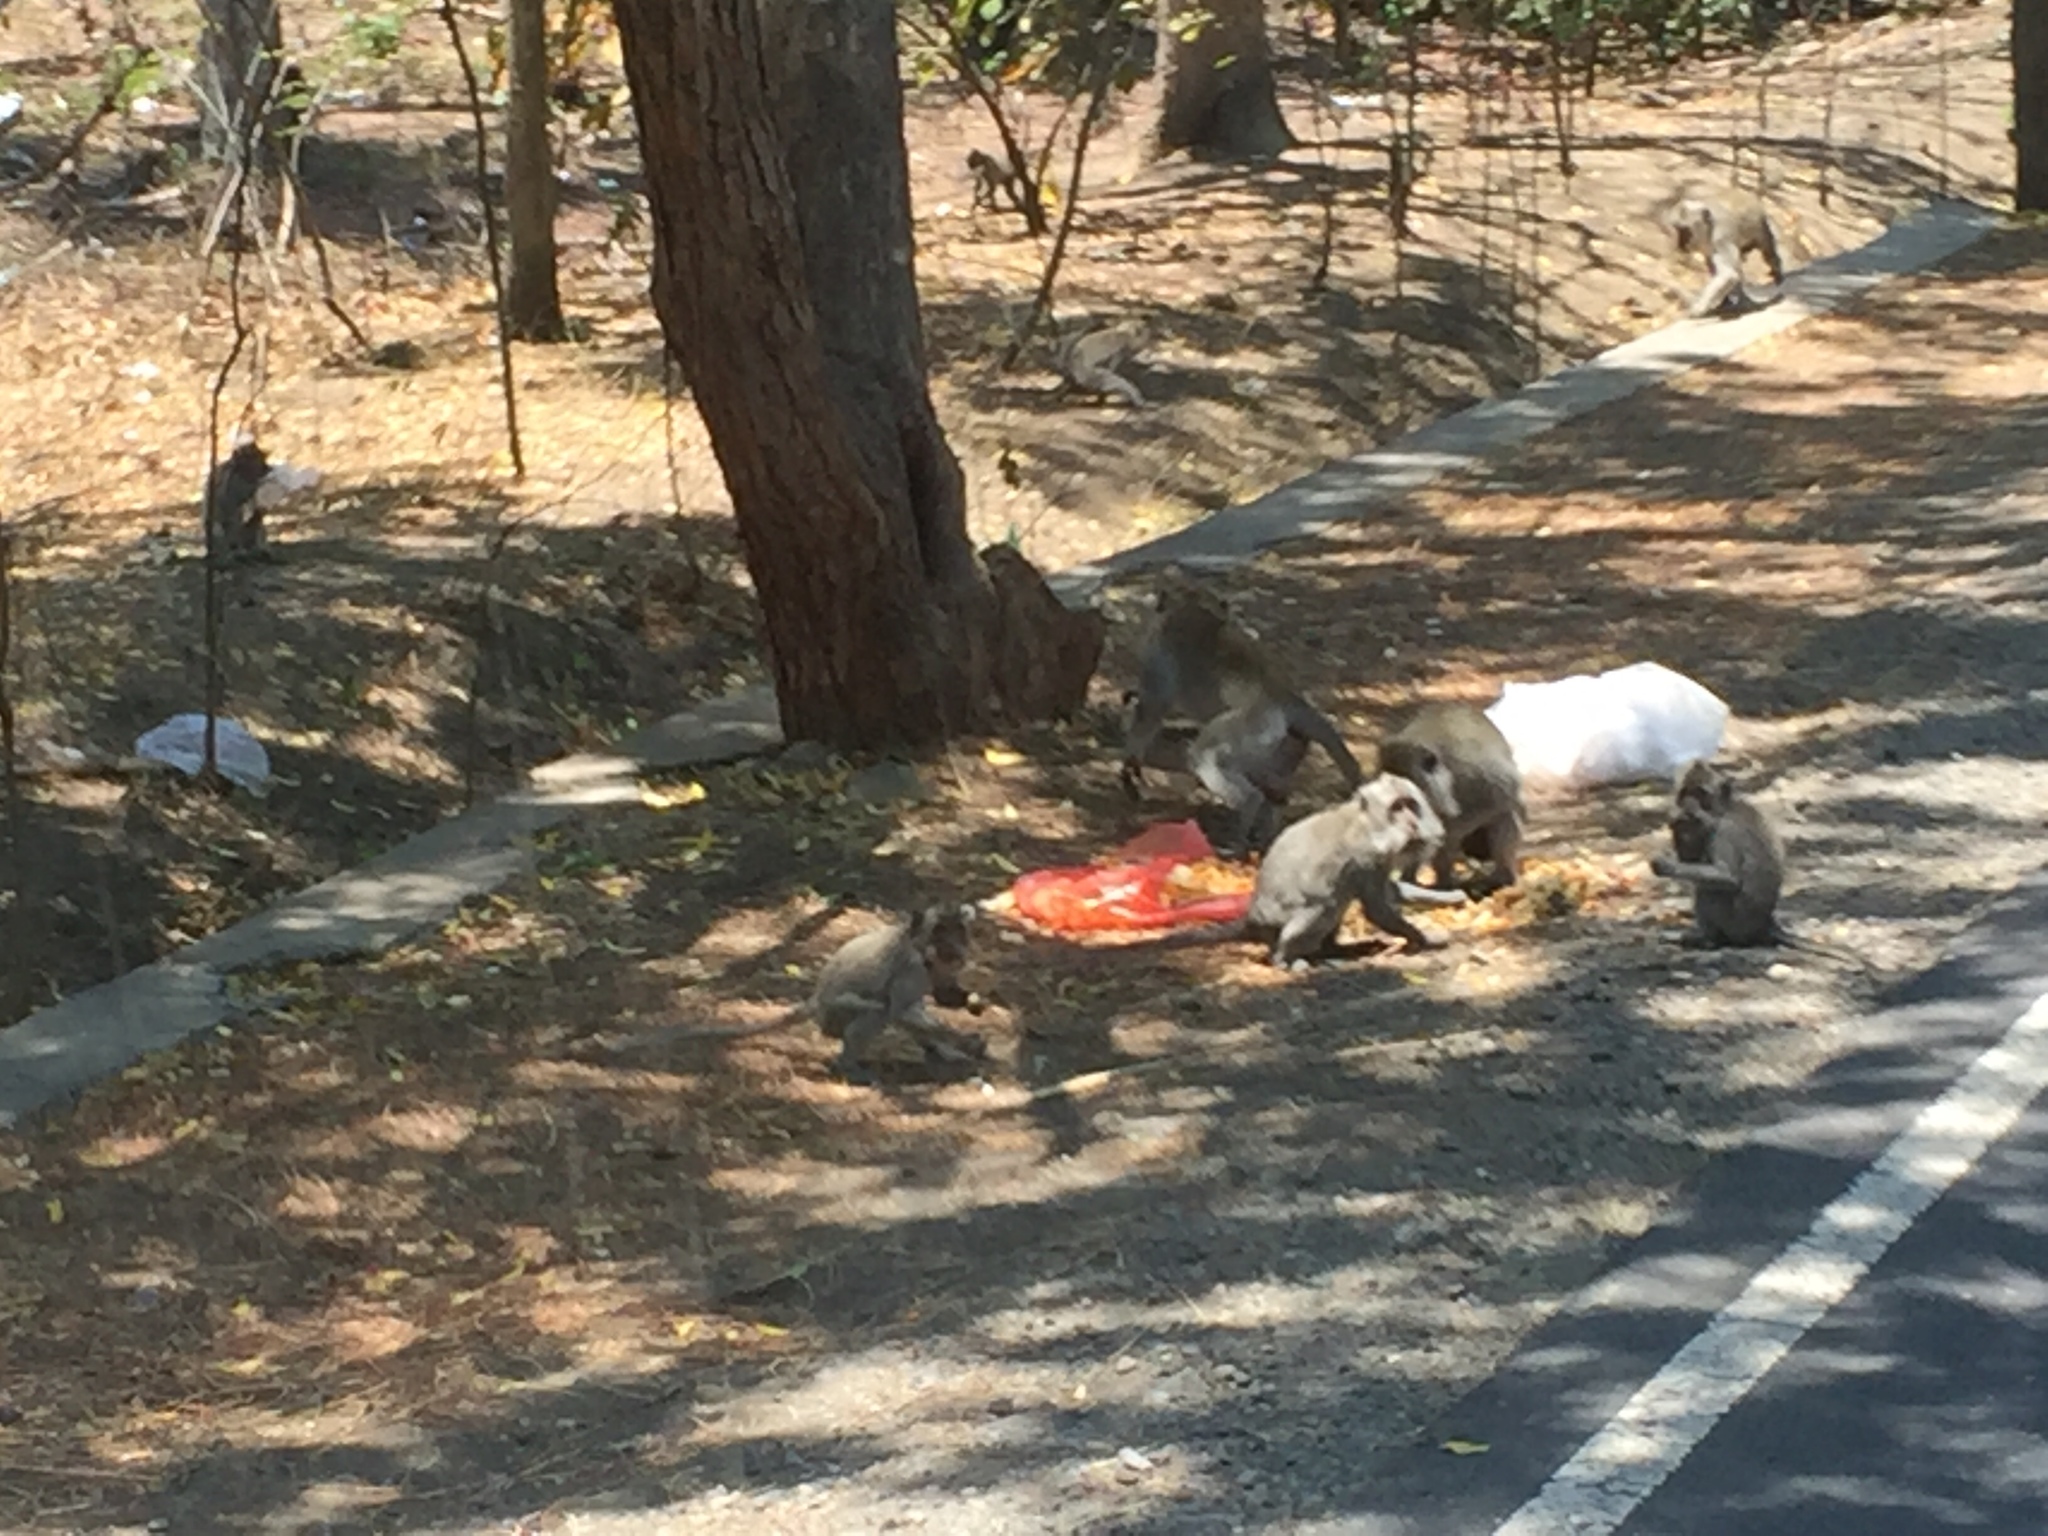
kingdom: Animalia
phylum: Chordata
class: Mammalia
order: Primates
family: Cercopithecidae
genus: Macaca
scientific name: Macaca fascicularis
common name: Crab-eating macaque
